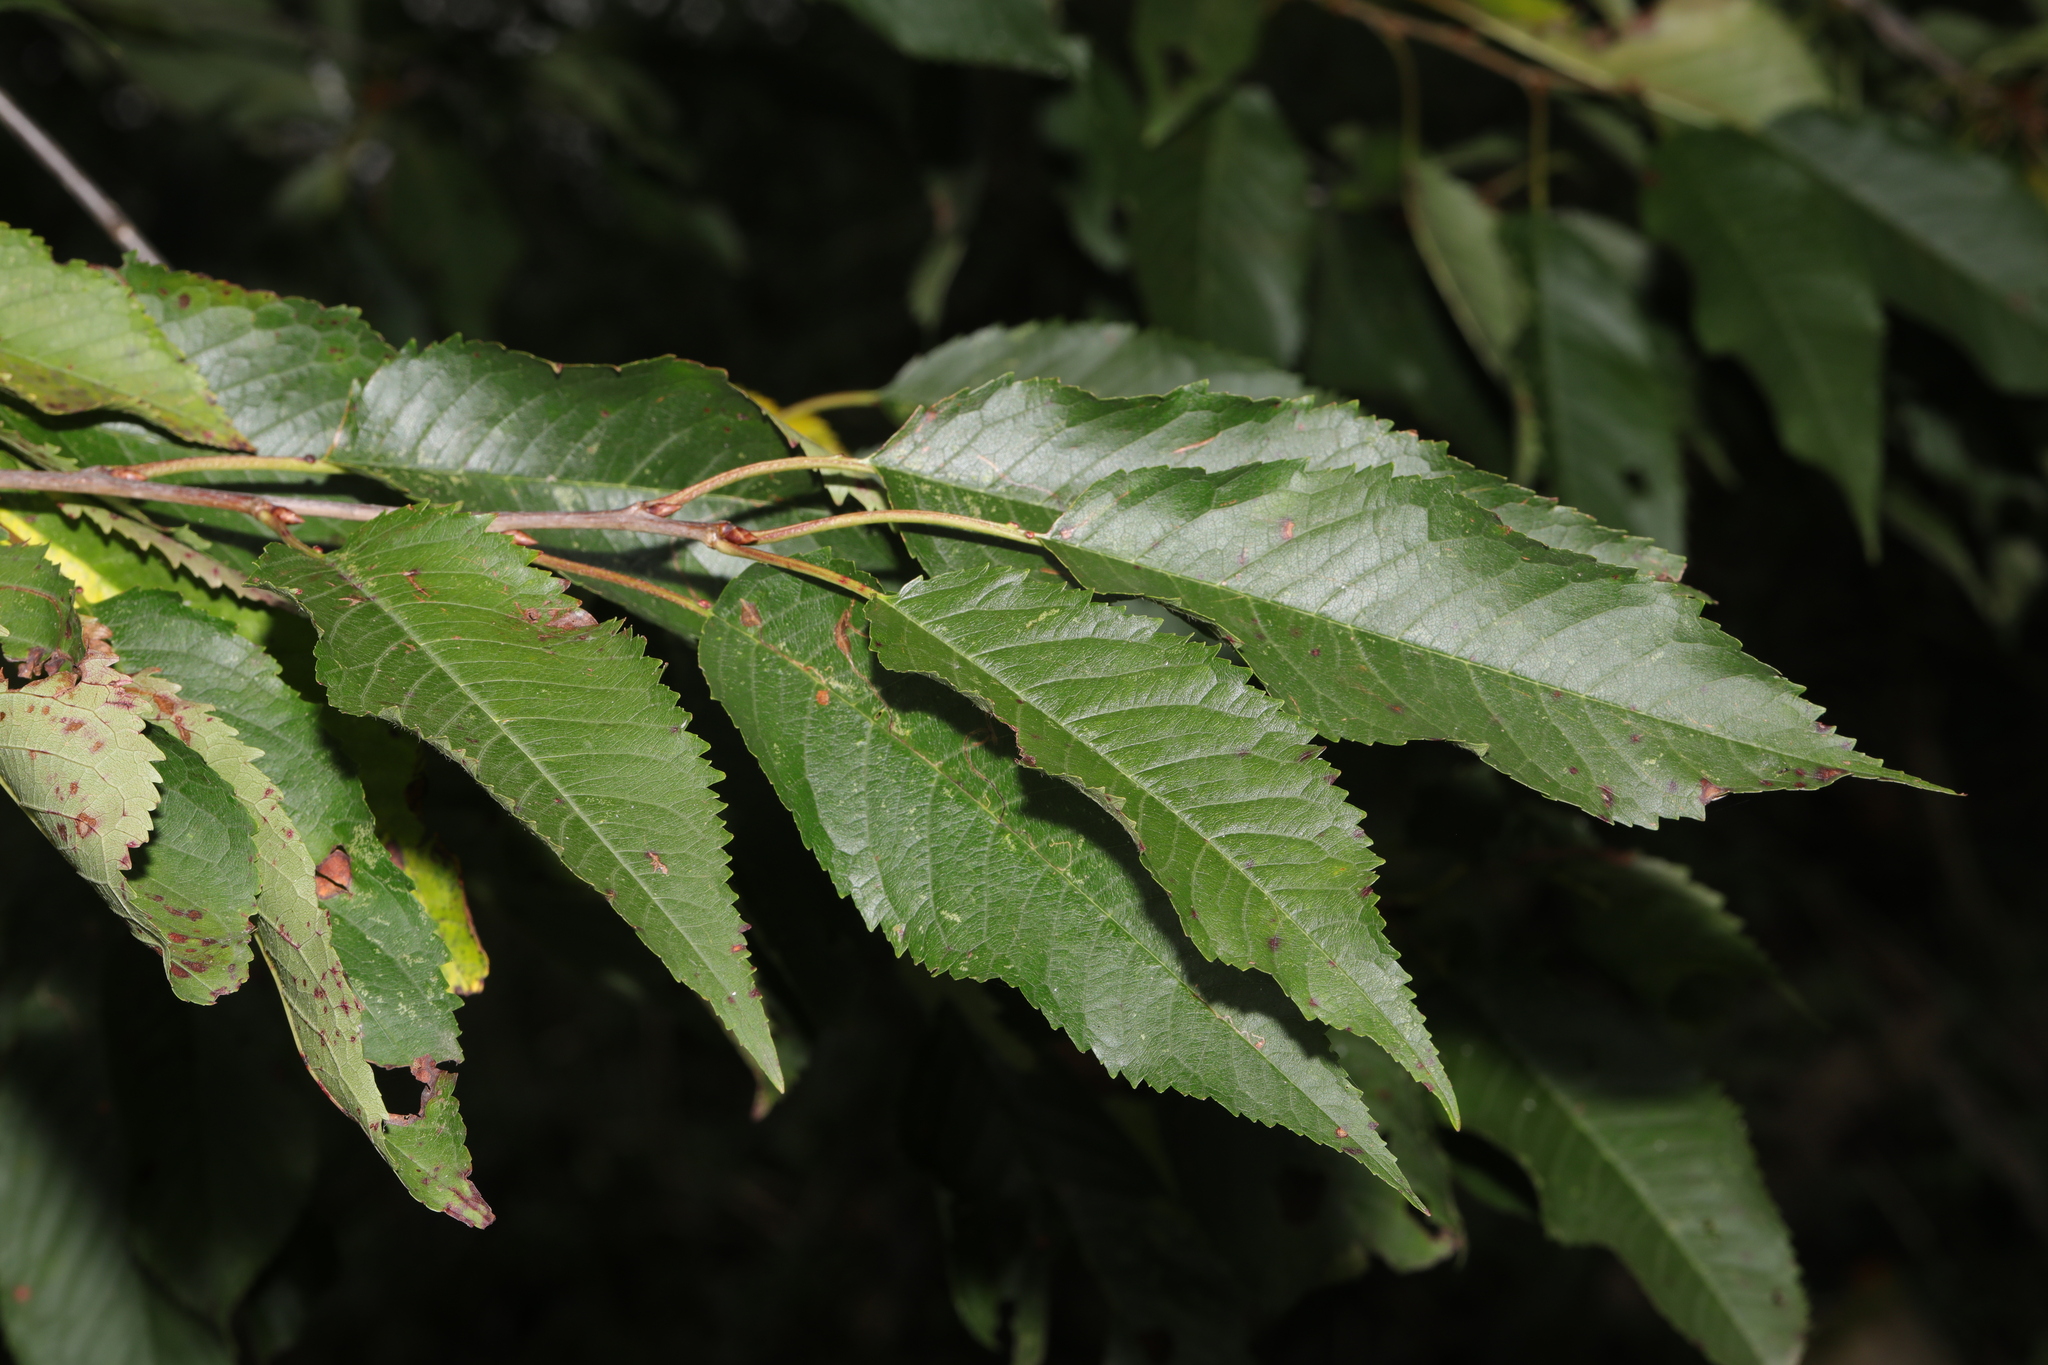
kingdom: Plantae
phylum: Tracheophyta
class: Magnoliopsida
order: Rosales
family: Rosaceae
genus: Prunus
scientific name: Prunus avium
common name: Sweet cherry
